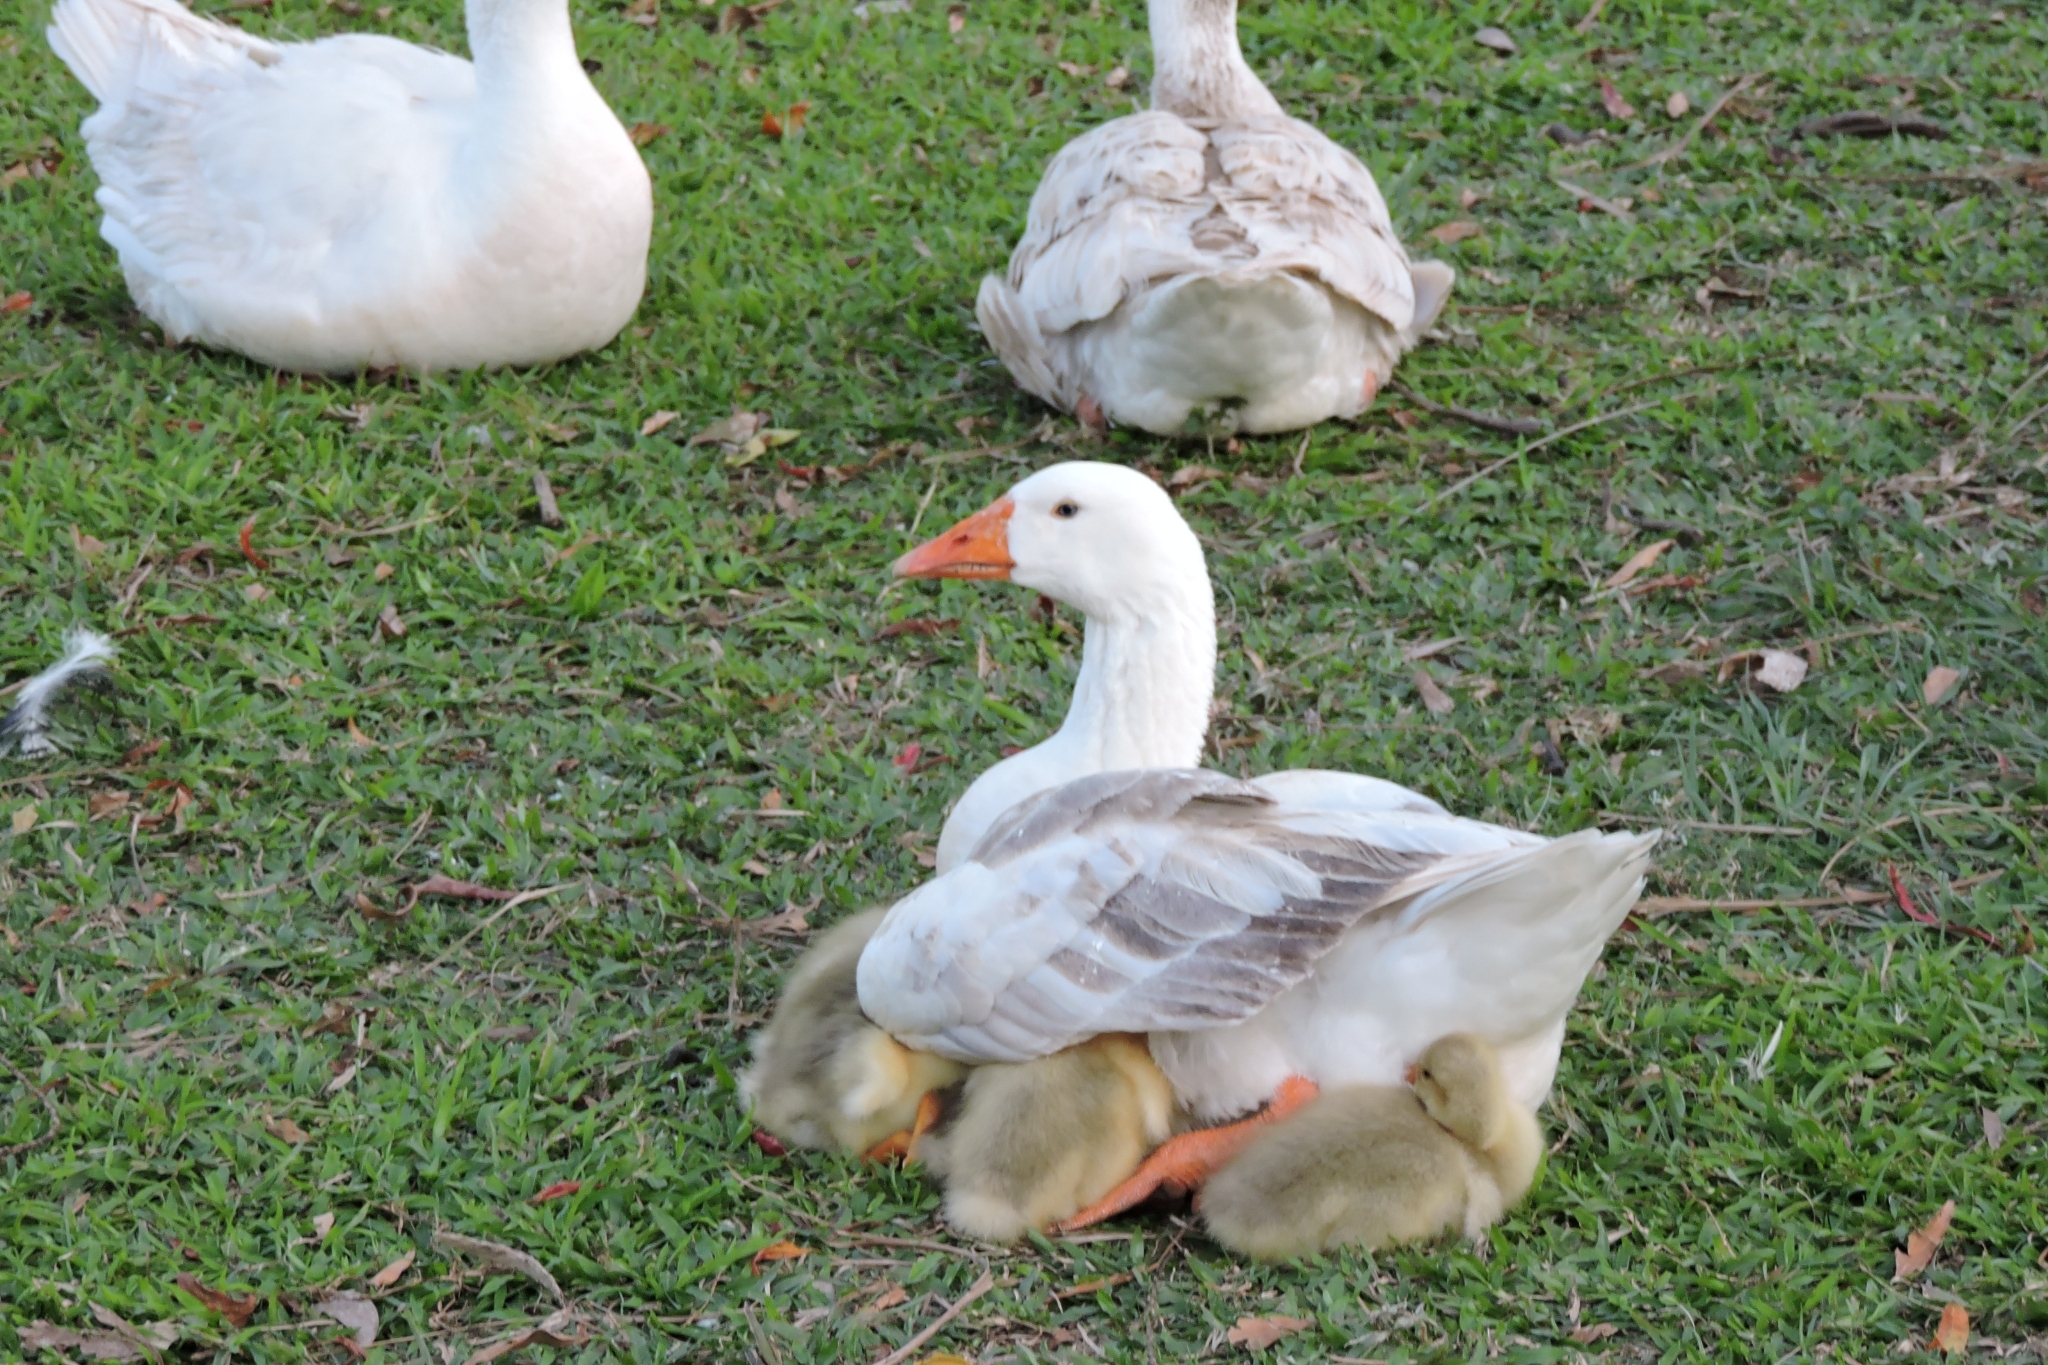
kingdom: Animalia
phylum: Chordata
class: Aves
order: Anseriformes
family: Anatidae
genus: Anser
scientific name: Anser anser
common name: Greylag goose
